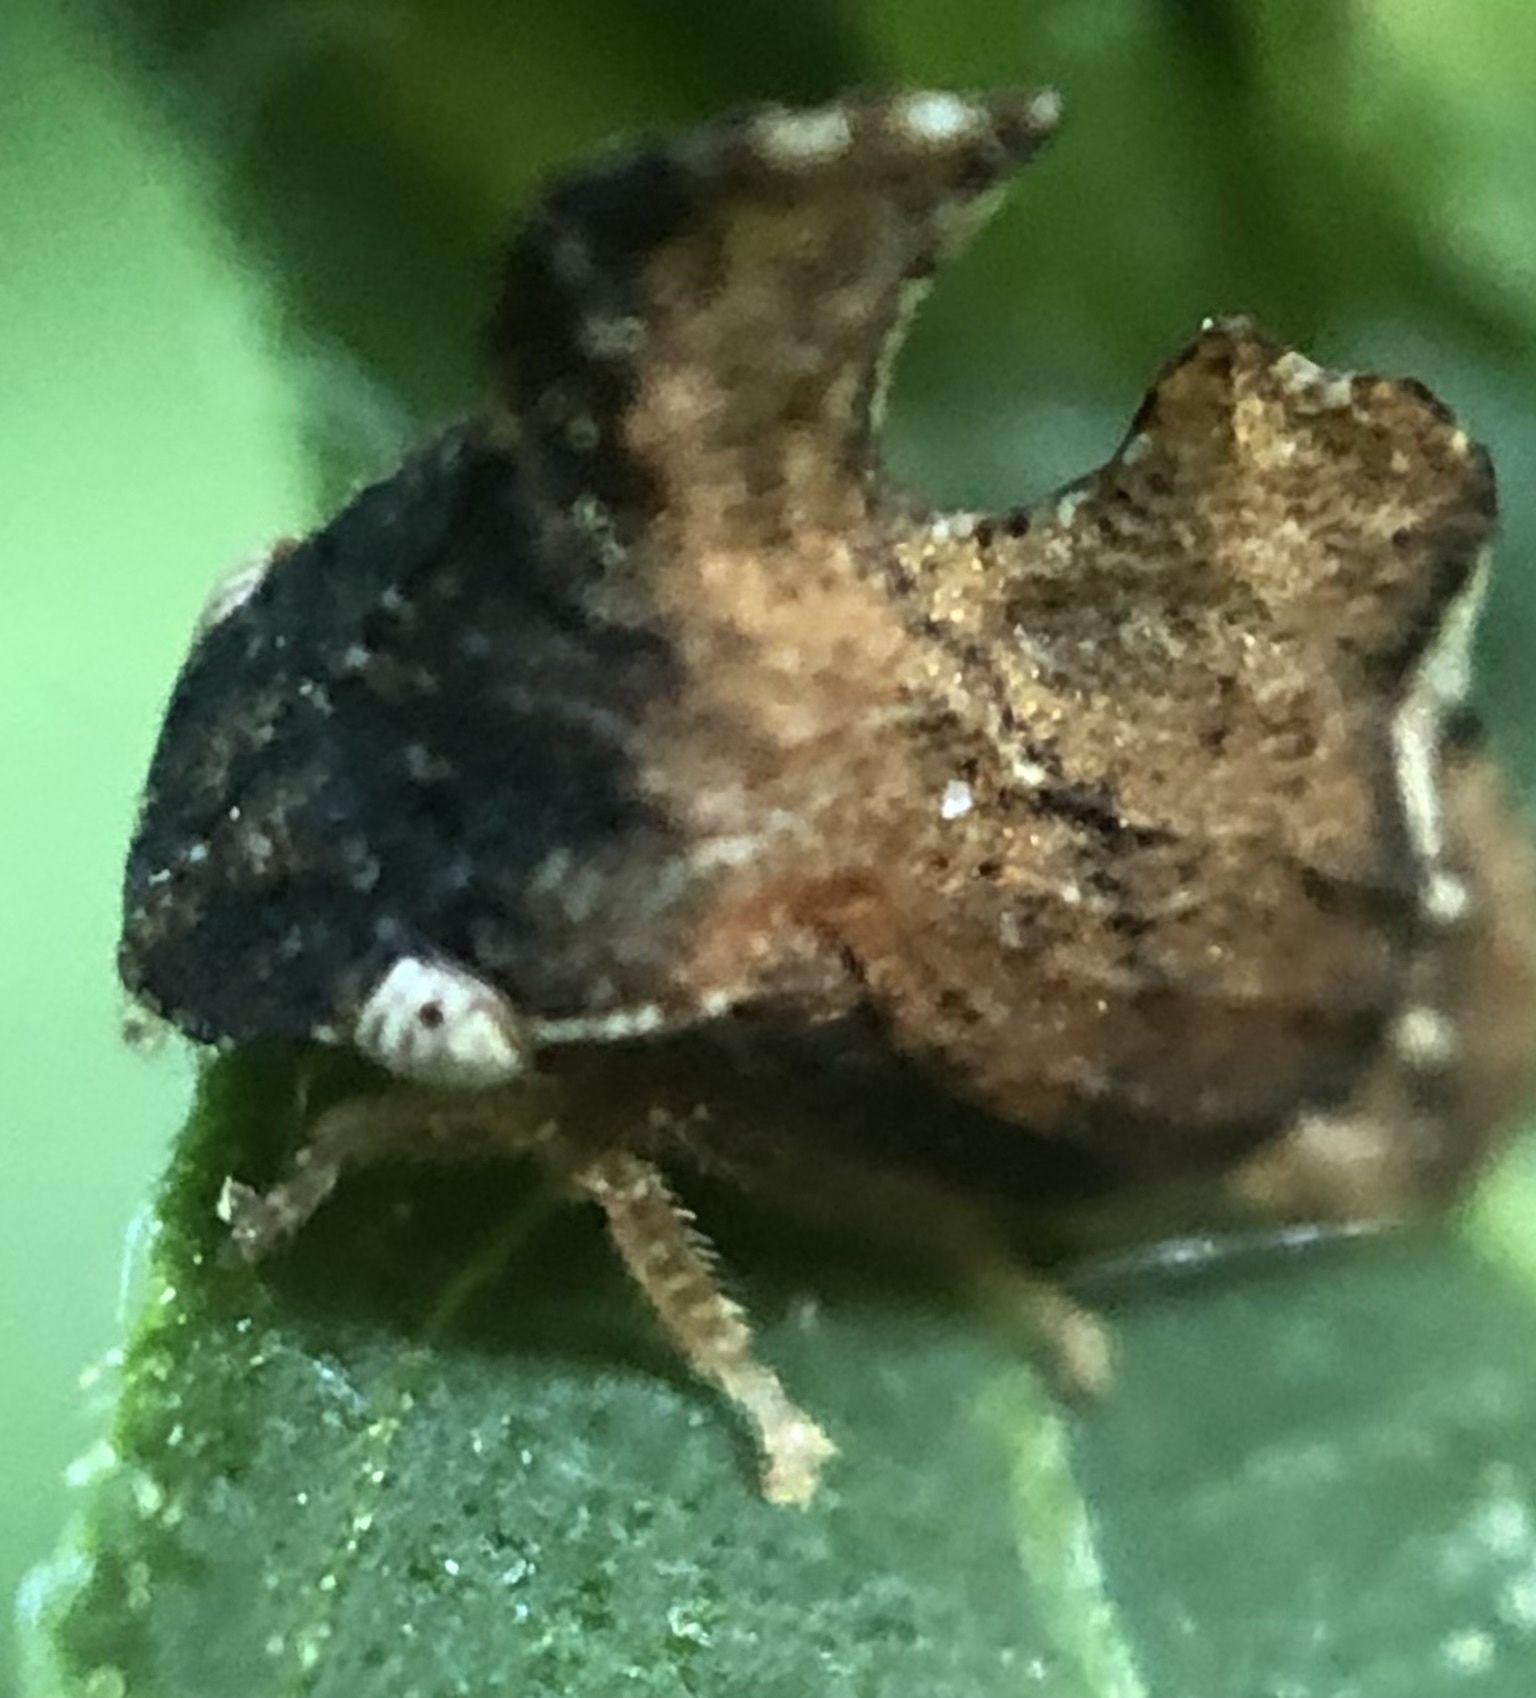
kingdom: Animalia
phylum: Arthropoda
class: Insecta
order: Hemiptera
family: Membracidae
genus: Entylia
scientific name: Entylia carinata
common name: Keeled treehopper
